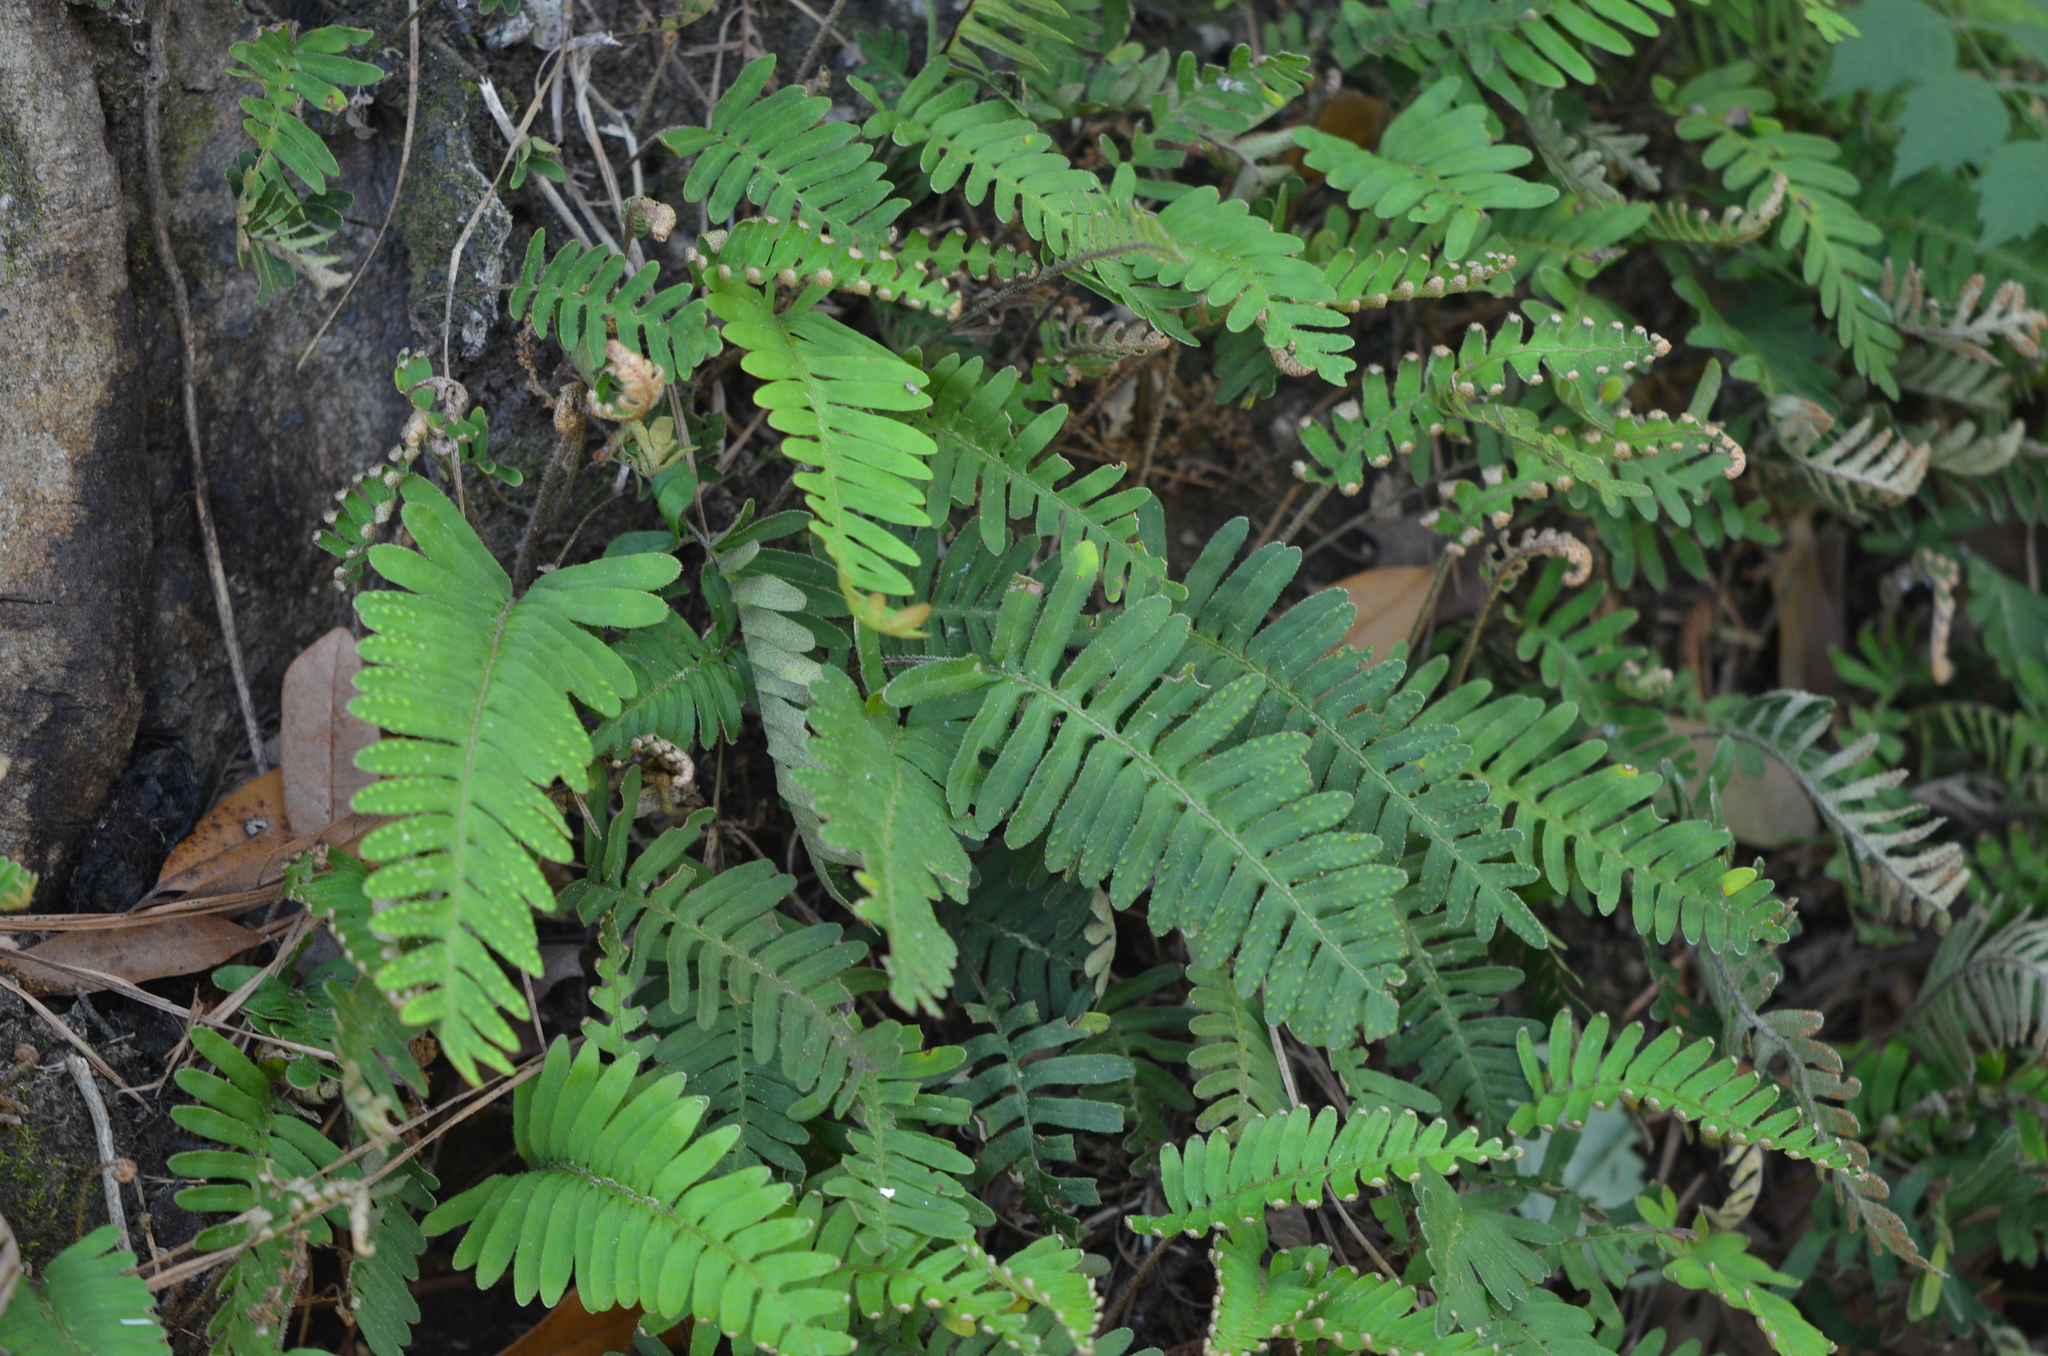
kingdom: Plantae
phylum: Tracheophyta
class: Polypodiopsida
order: Polypodiales
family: Polypodiaceae
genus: Pleopeltis
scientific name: Pleopeltis michauxiana
